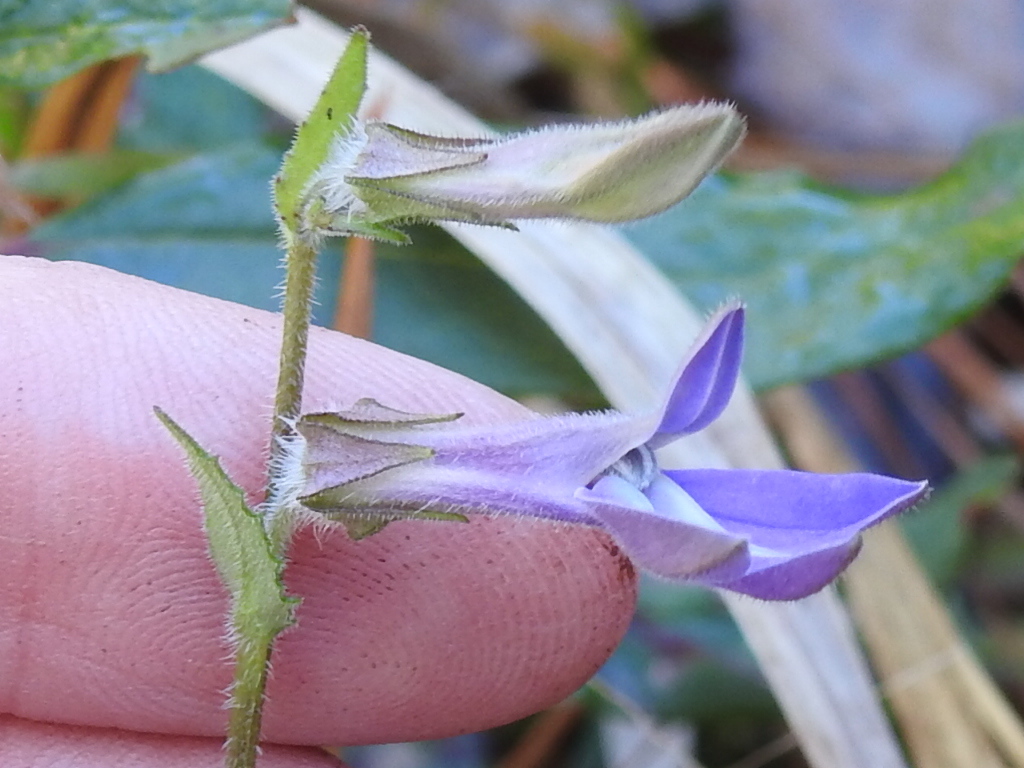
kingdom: Plantae
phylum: Tracheophyta
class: Magnoliopsida
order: Asterales
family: Campanulaceae
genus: Lobelia
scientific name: Lobelia puberula
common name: Purple dewdrop
